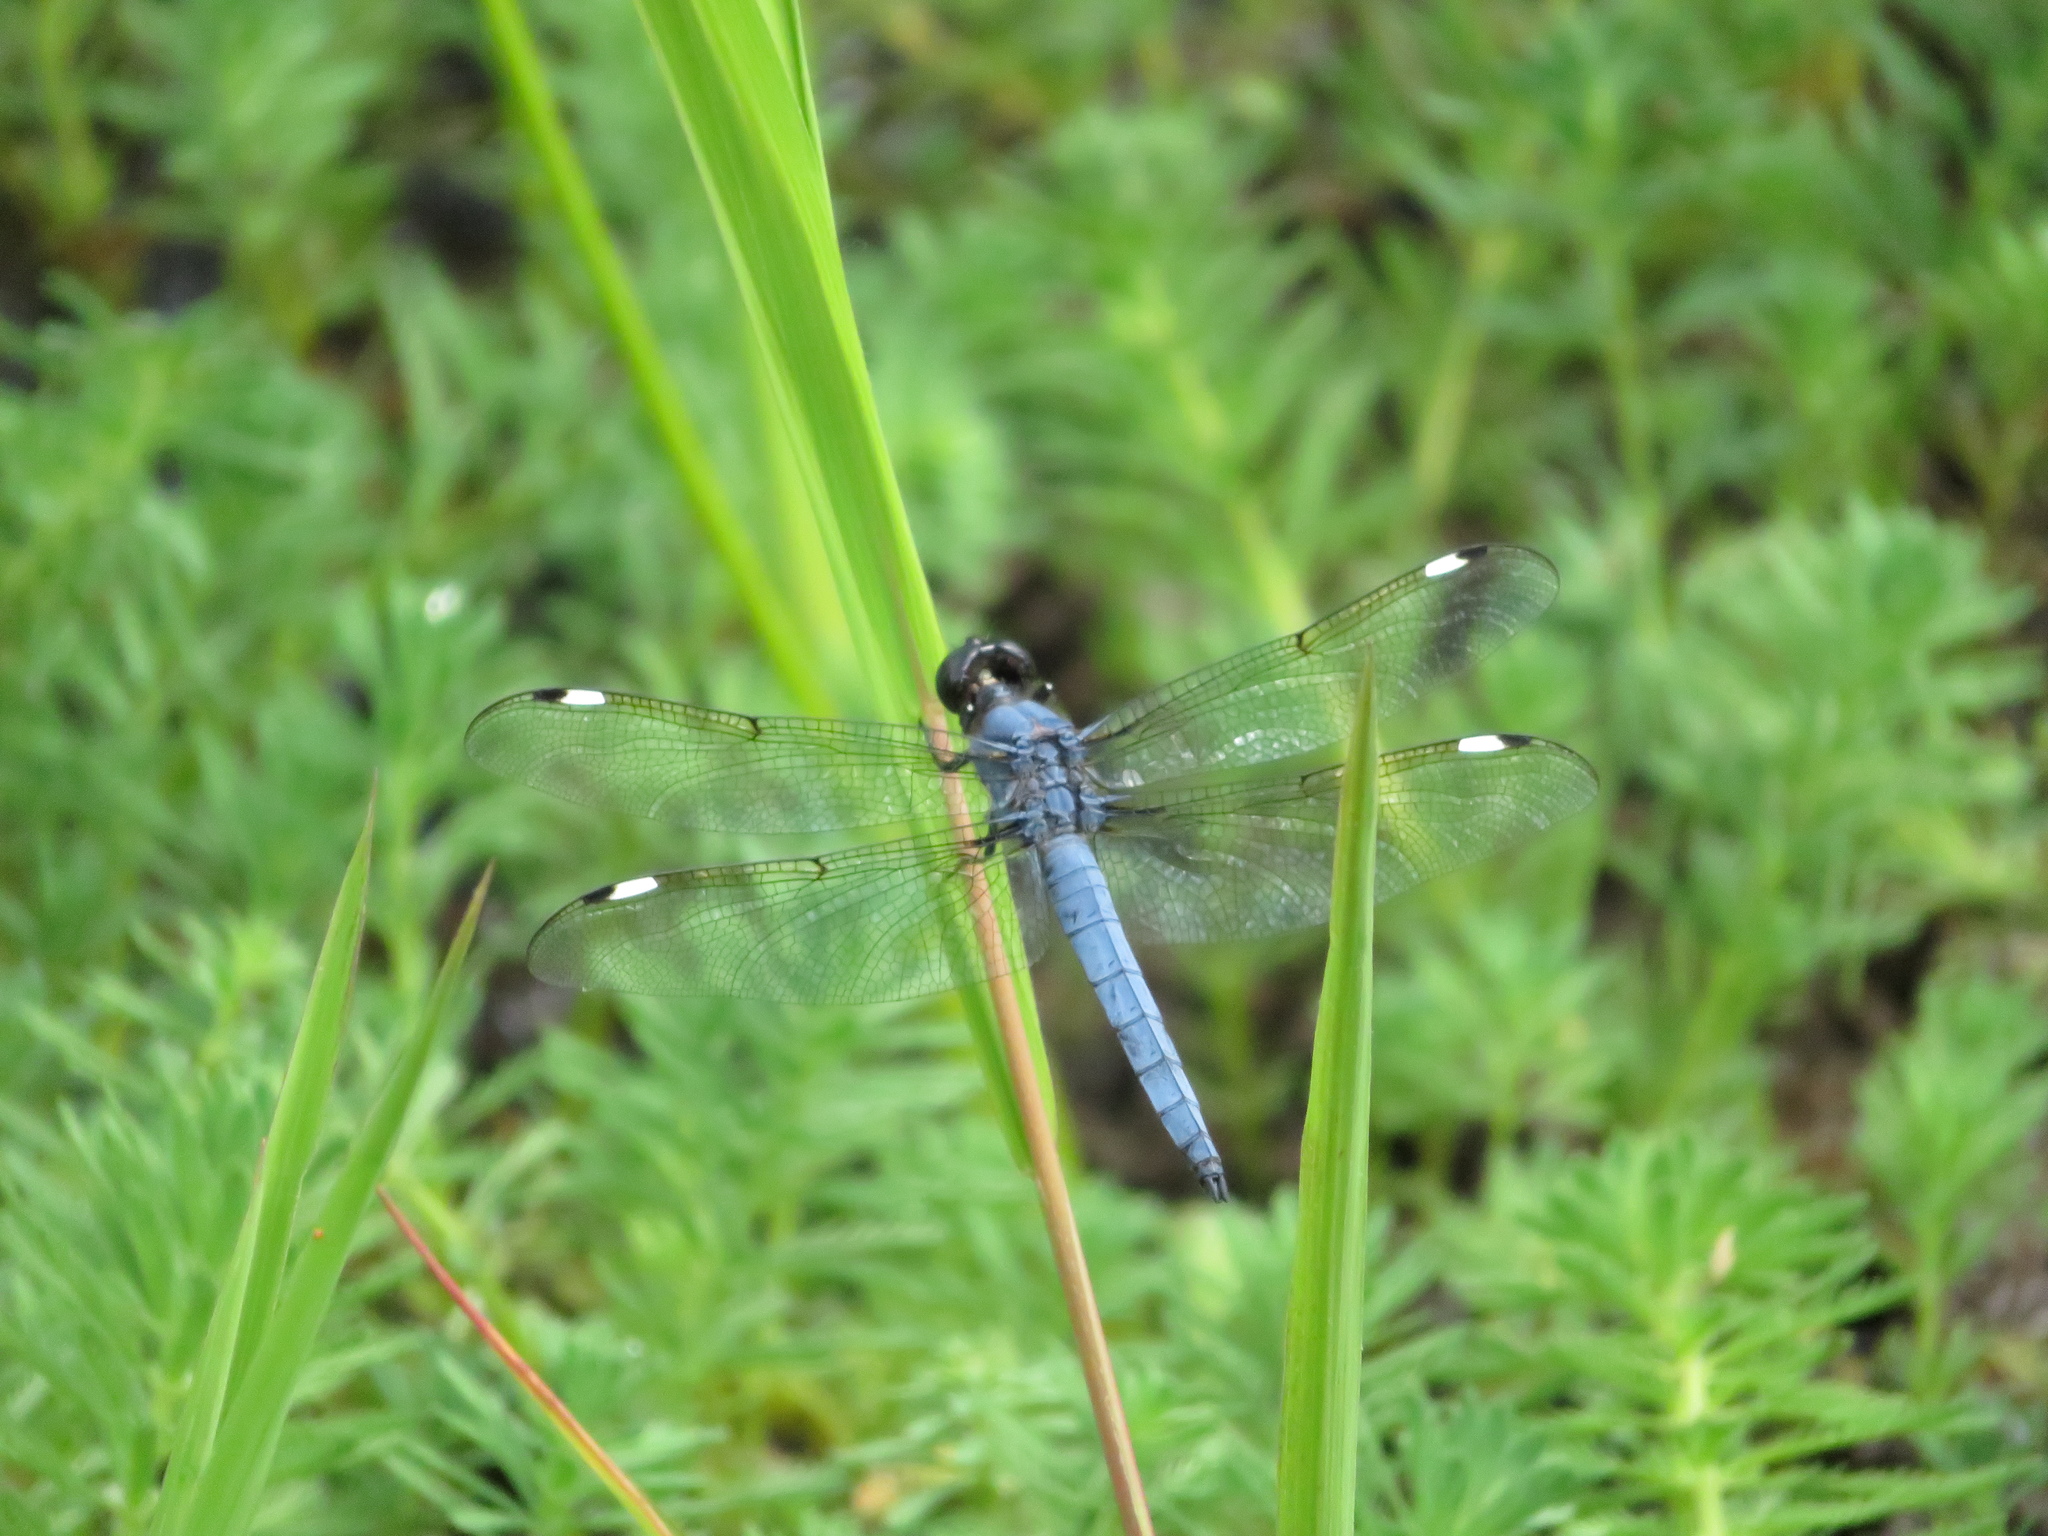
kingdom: Animalia
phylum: Arthropoda
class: Insecta
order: Odonata
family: Libellulidae
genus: Libellula
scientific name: Libellula cyanea
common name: Spangled skimmer
